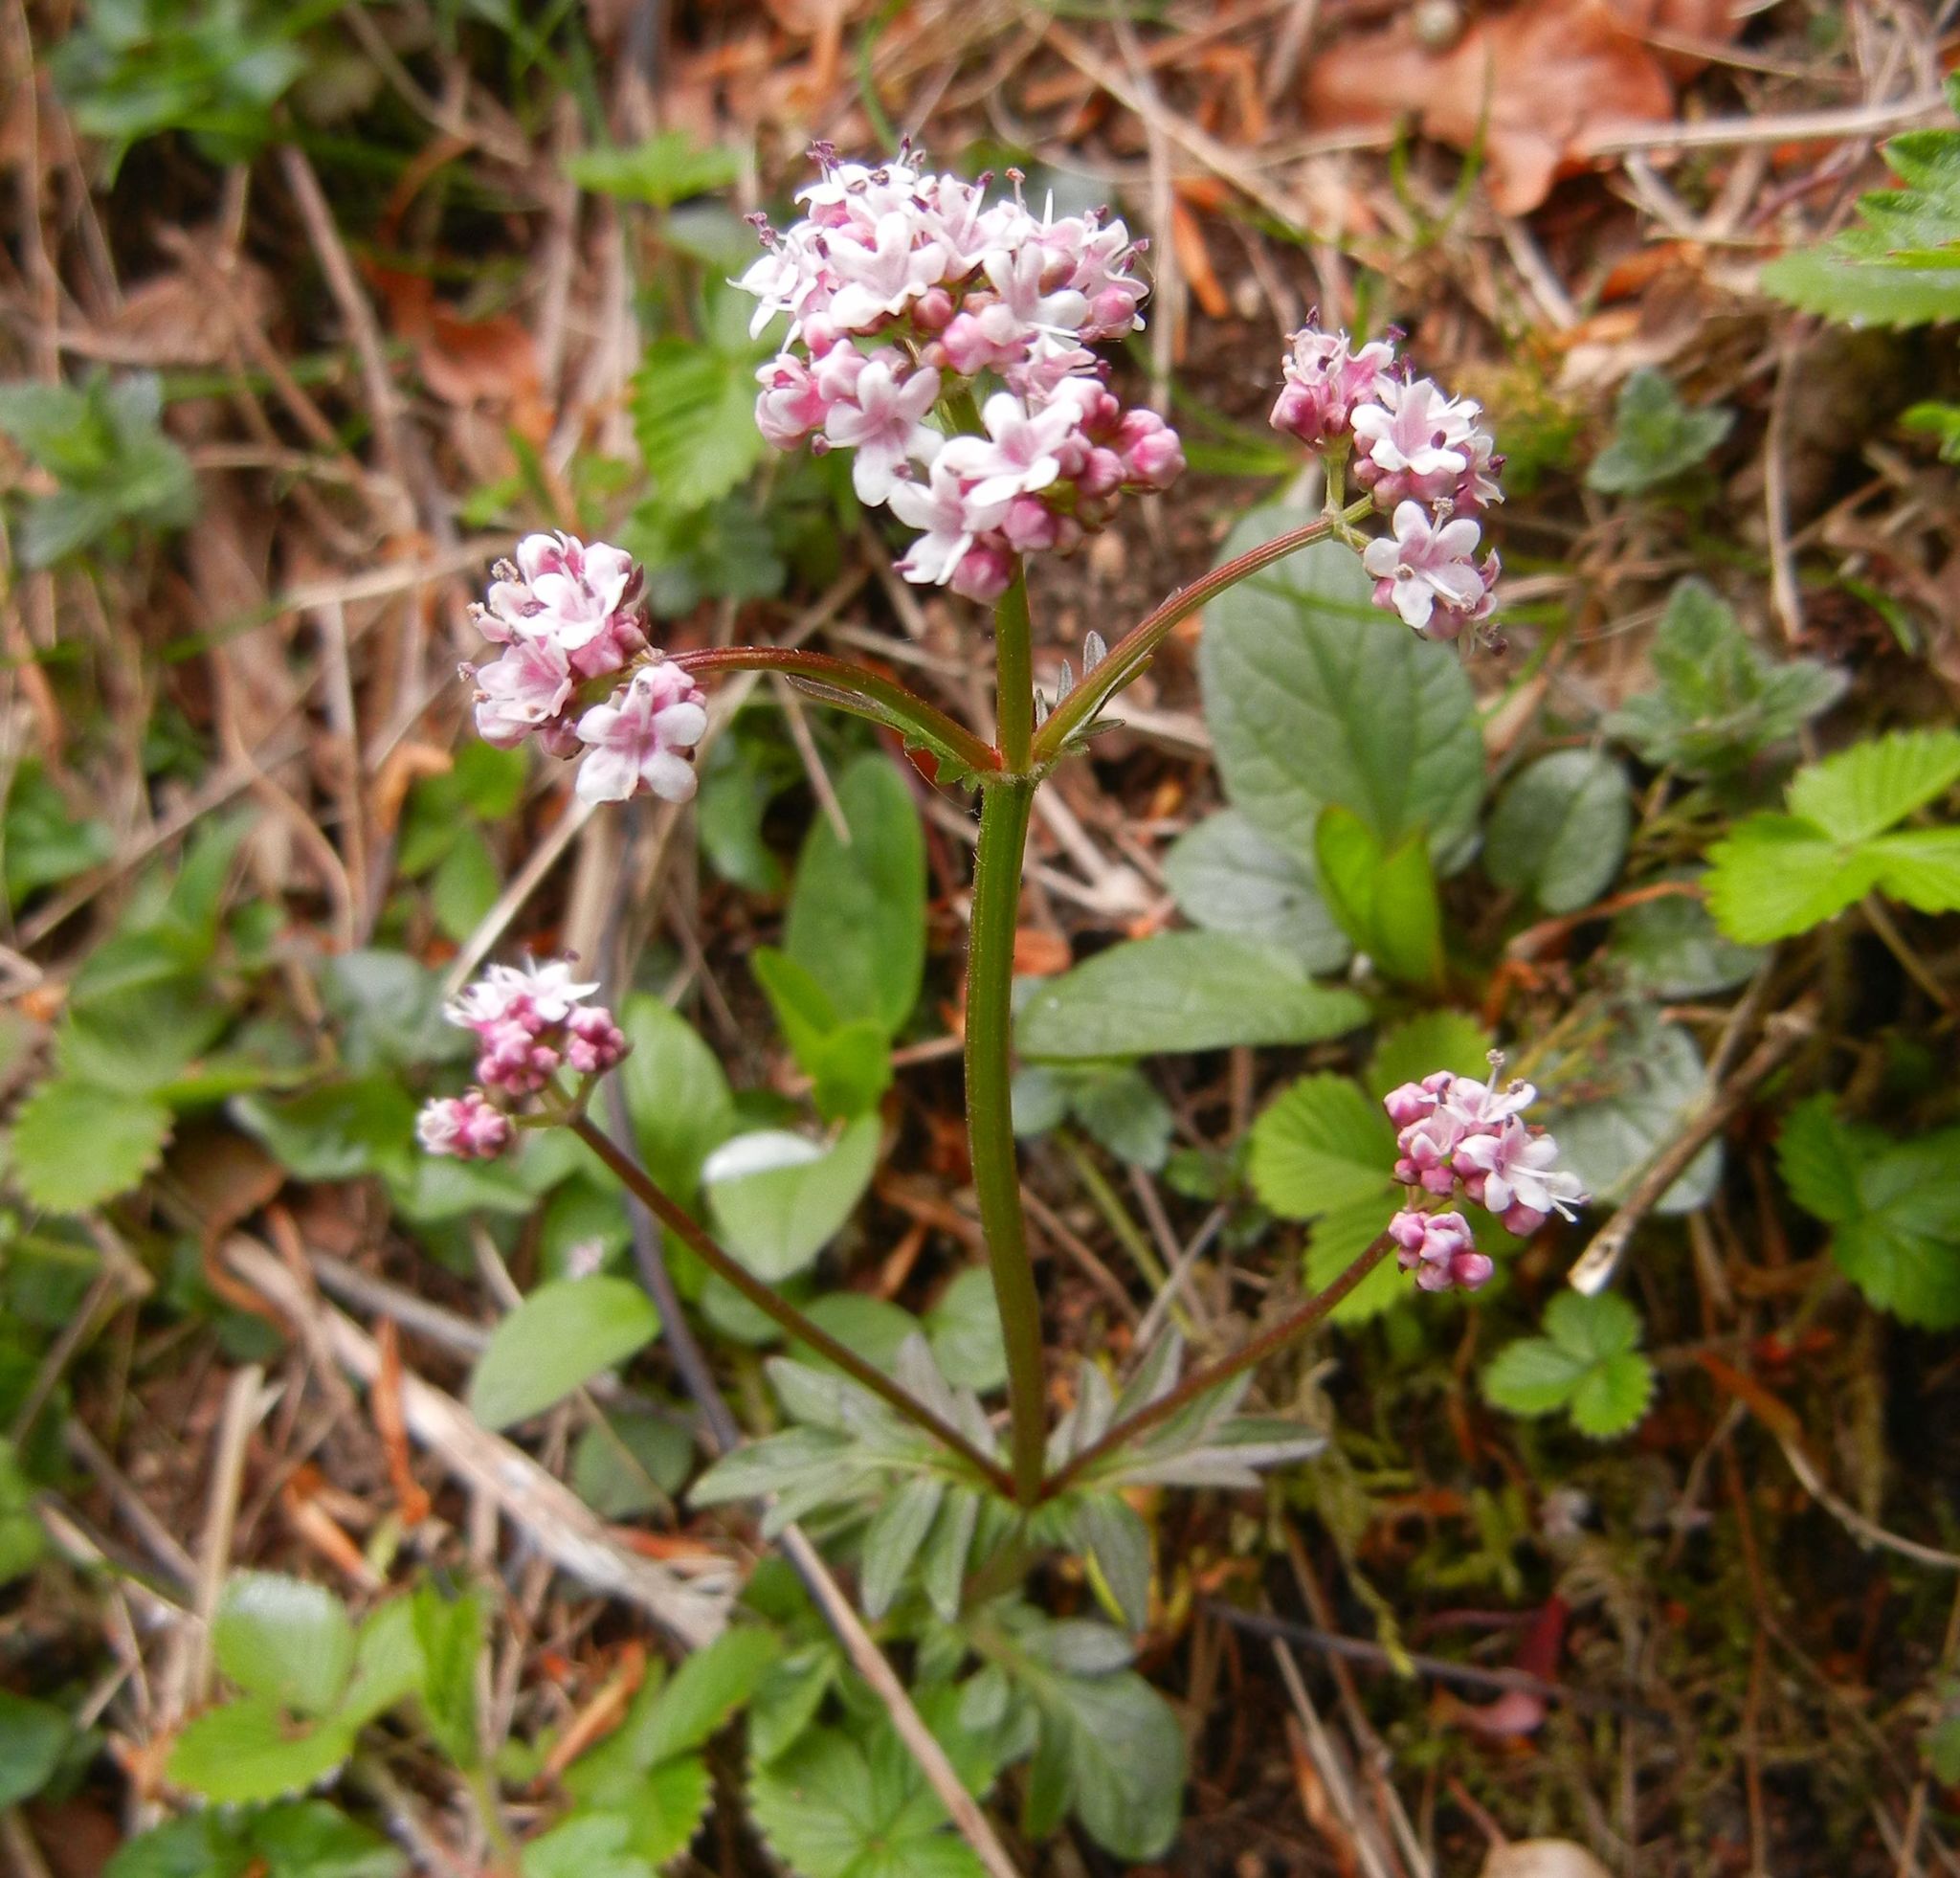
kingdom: Plantae
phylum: Tracheophyta
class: Magnoliopsida
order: Dipsacales
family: Caprifoliaceae
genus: Valeriana
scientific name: Valeriana dioica
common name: Marsh valerian
